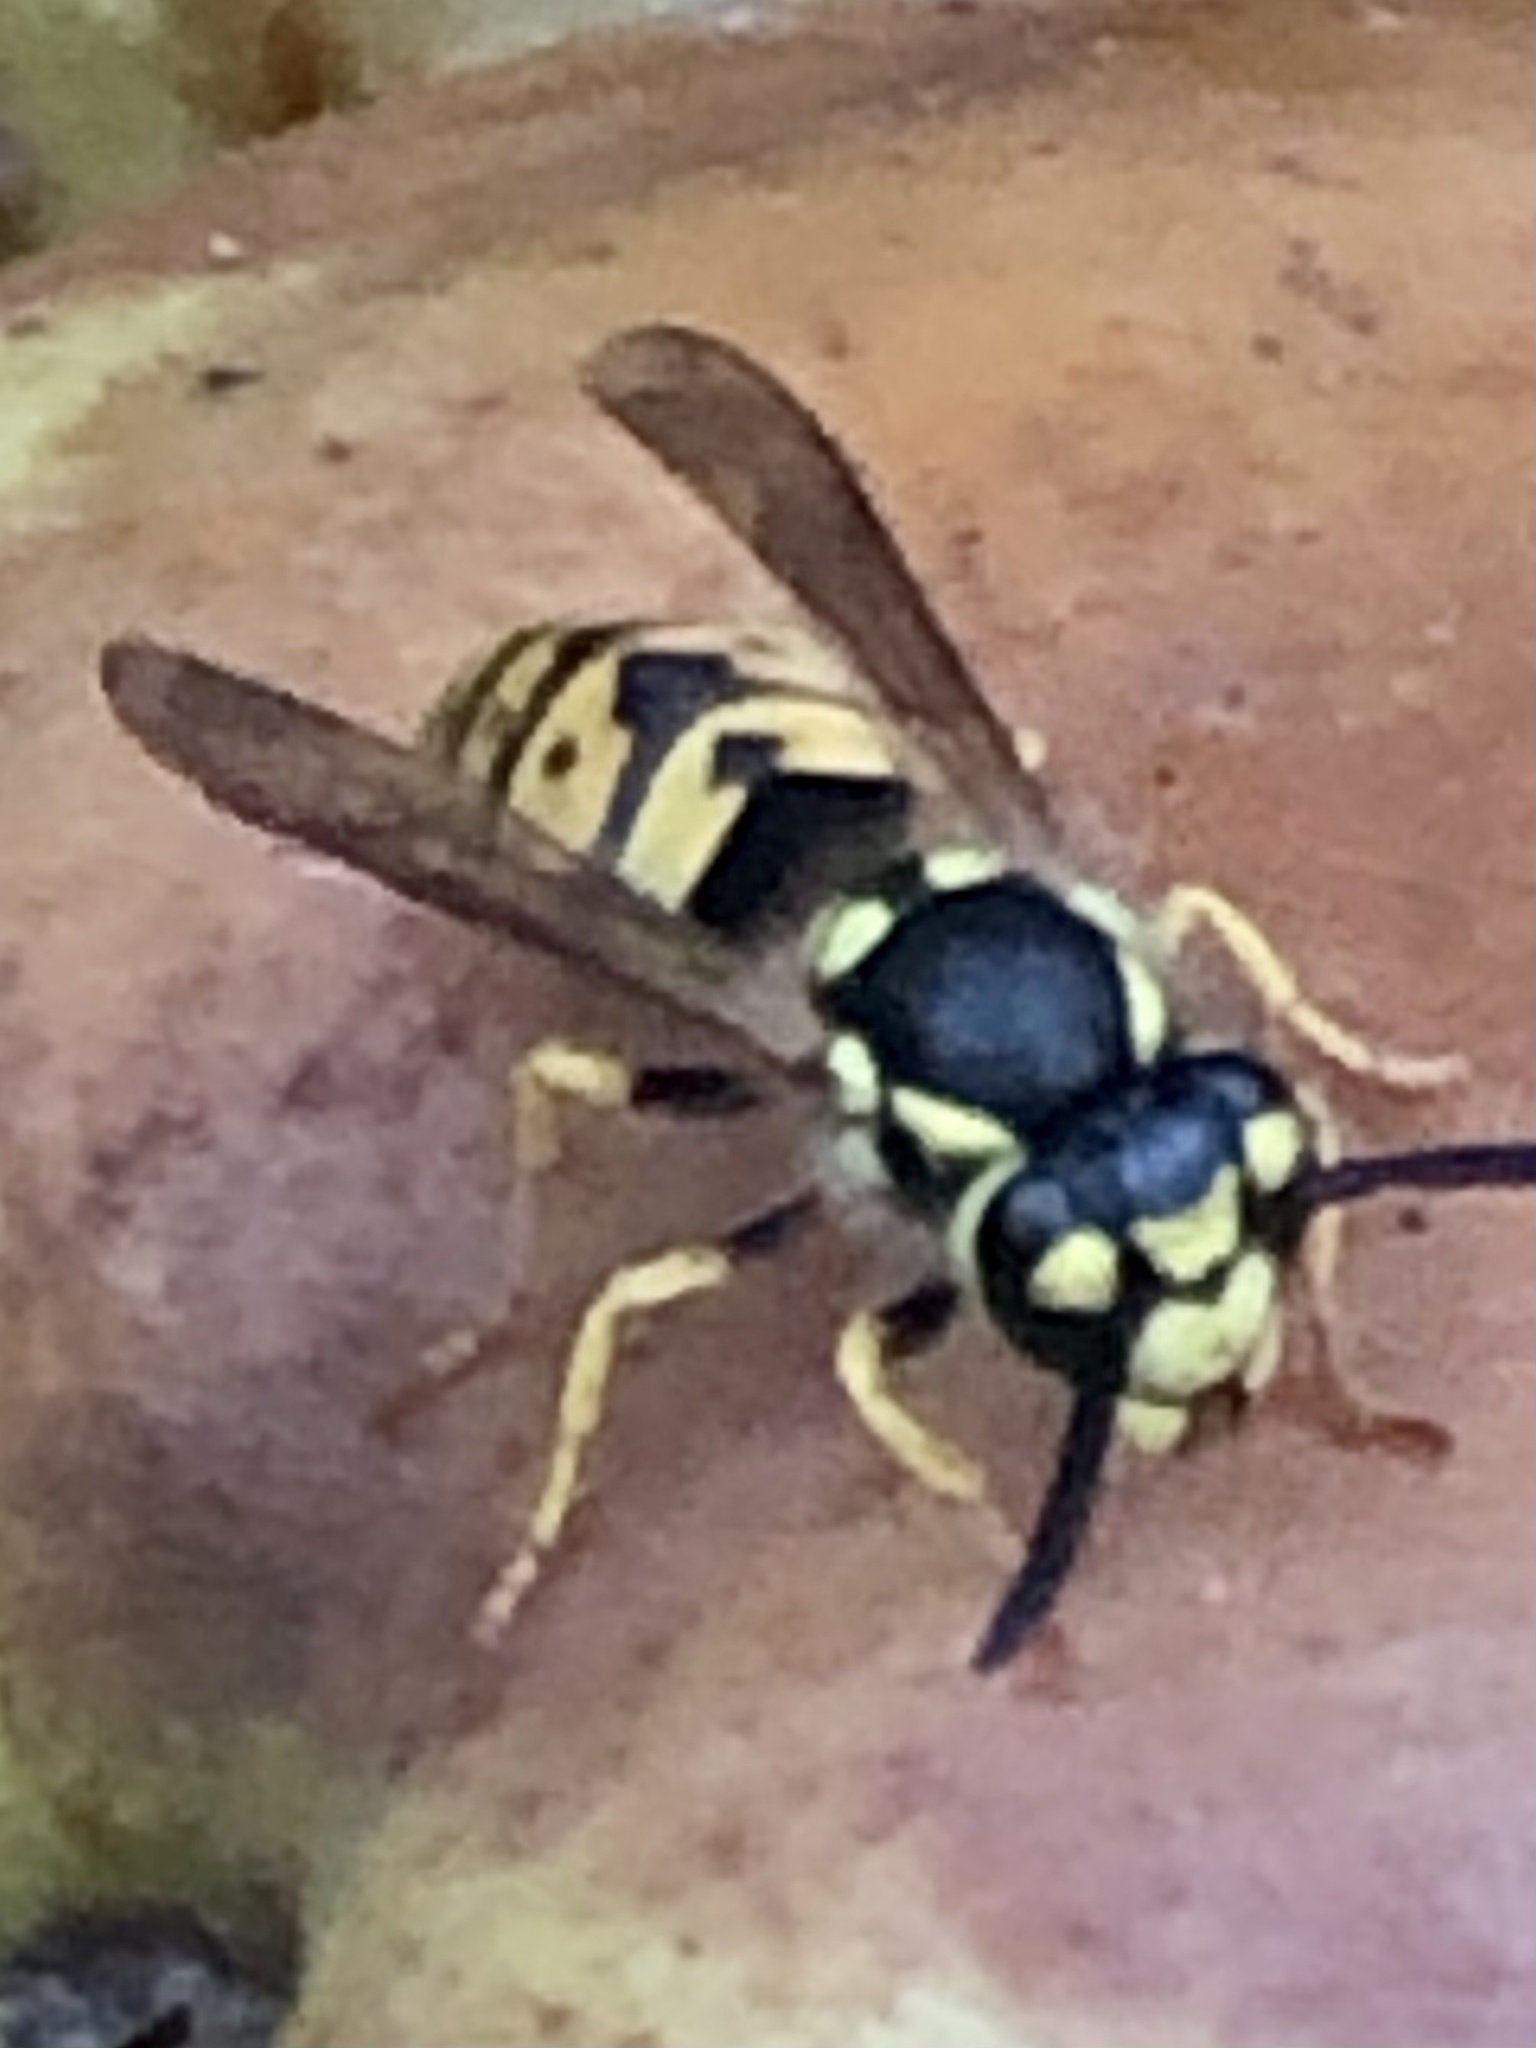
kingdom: Animalia
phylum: Arthropoda
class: Insecta
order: Hymenoptera
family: Vespidae
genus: Vespula
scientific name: Vespula germanica
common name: German wasp
